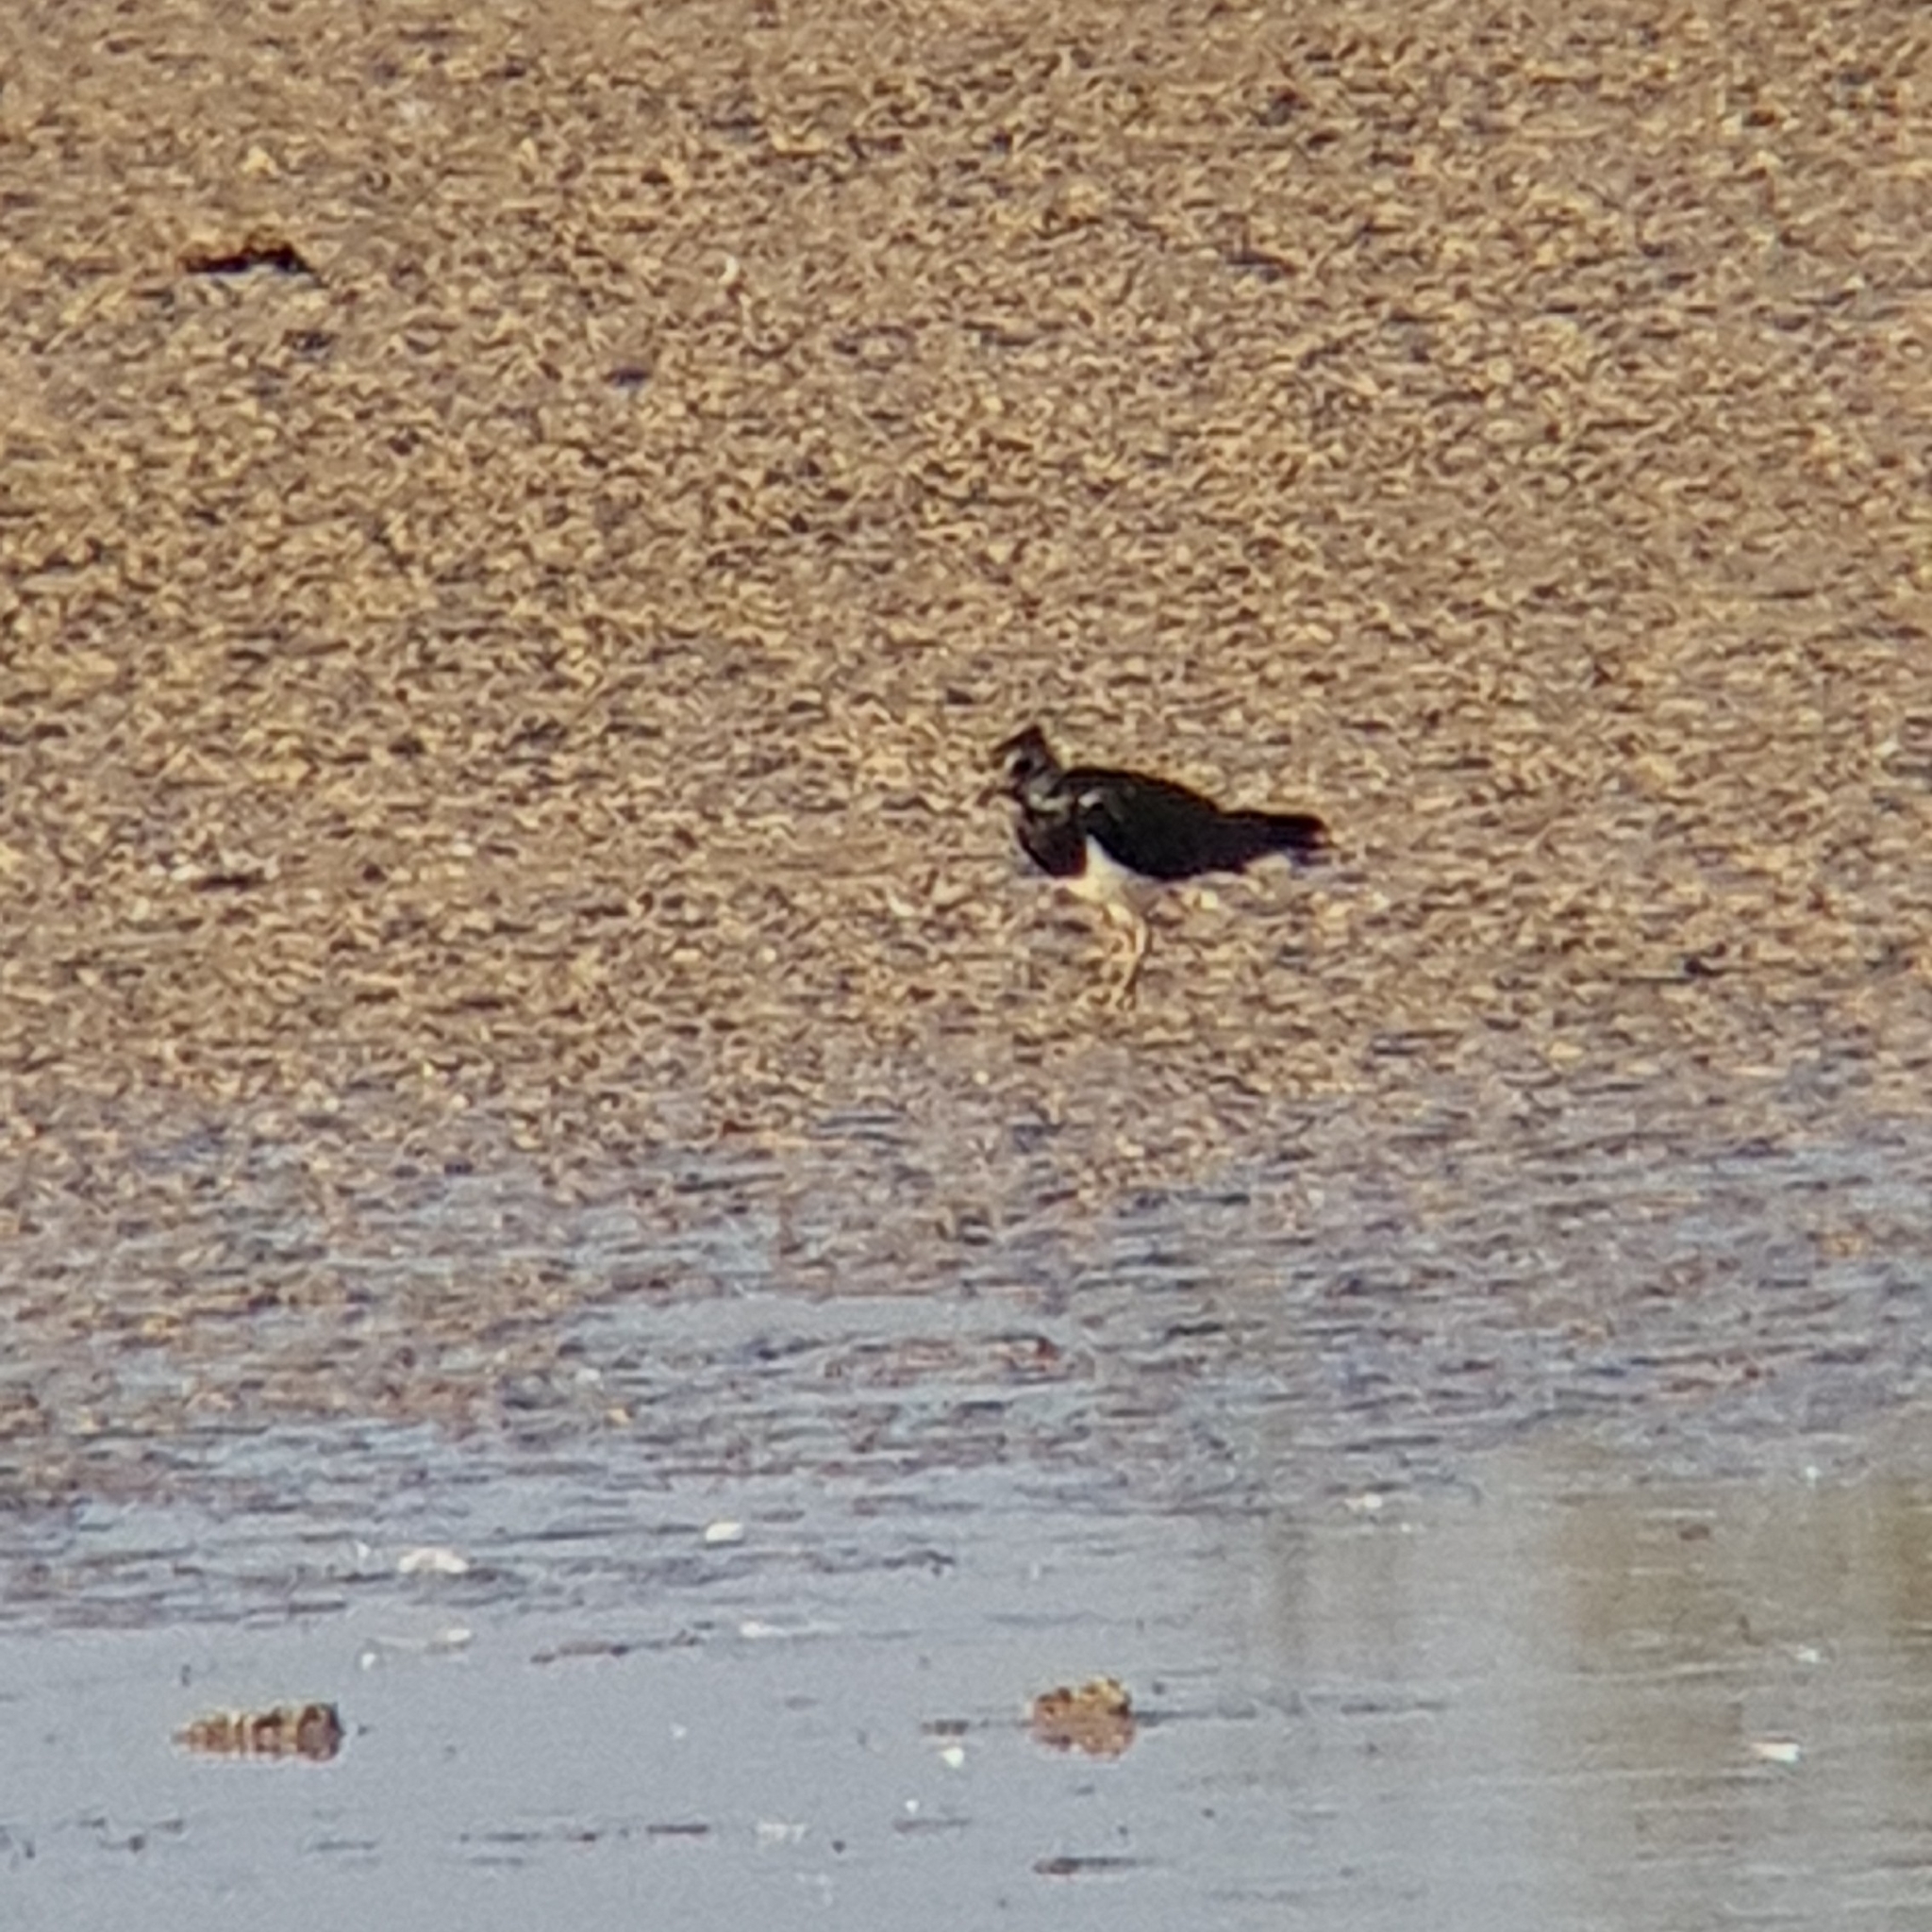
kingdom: Animalia
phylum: Chordata
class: Aves
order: Charadriiformes
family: Charadriidae
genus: Vanellus
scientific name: Vanellus vanellus
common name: Northern lapwing
